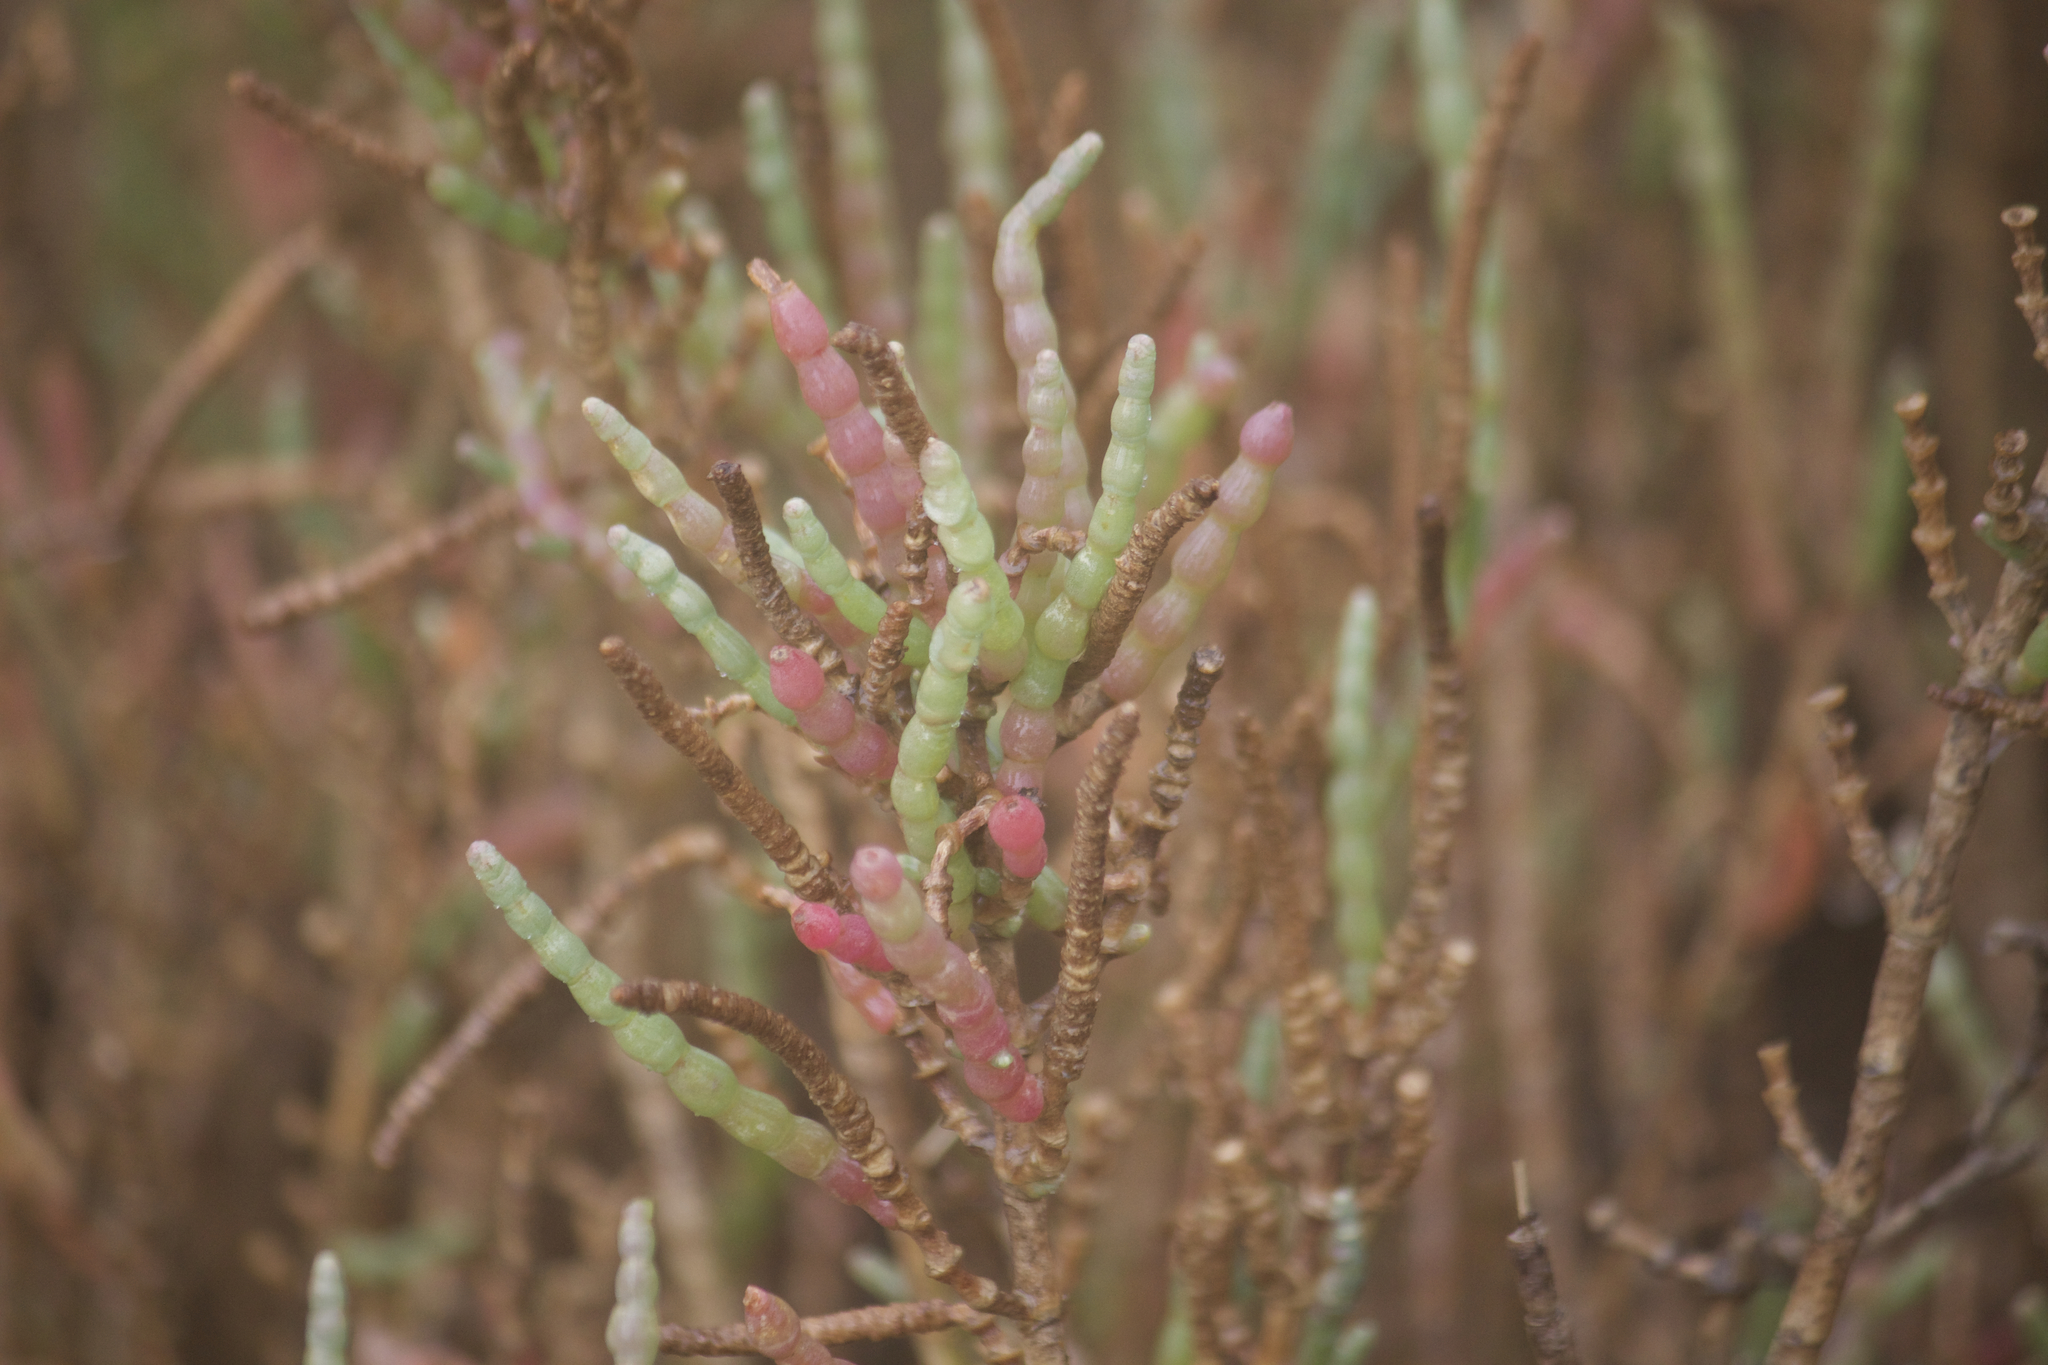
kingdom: Plantae
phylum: Tracheophyta
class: Magnoliopsida
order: Caryophyllales
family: Amaranthaceae
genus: Salicornia
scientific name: Salicornia pacifica
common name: Pacific glasswort
